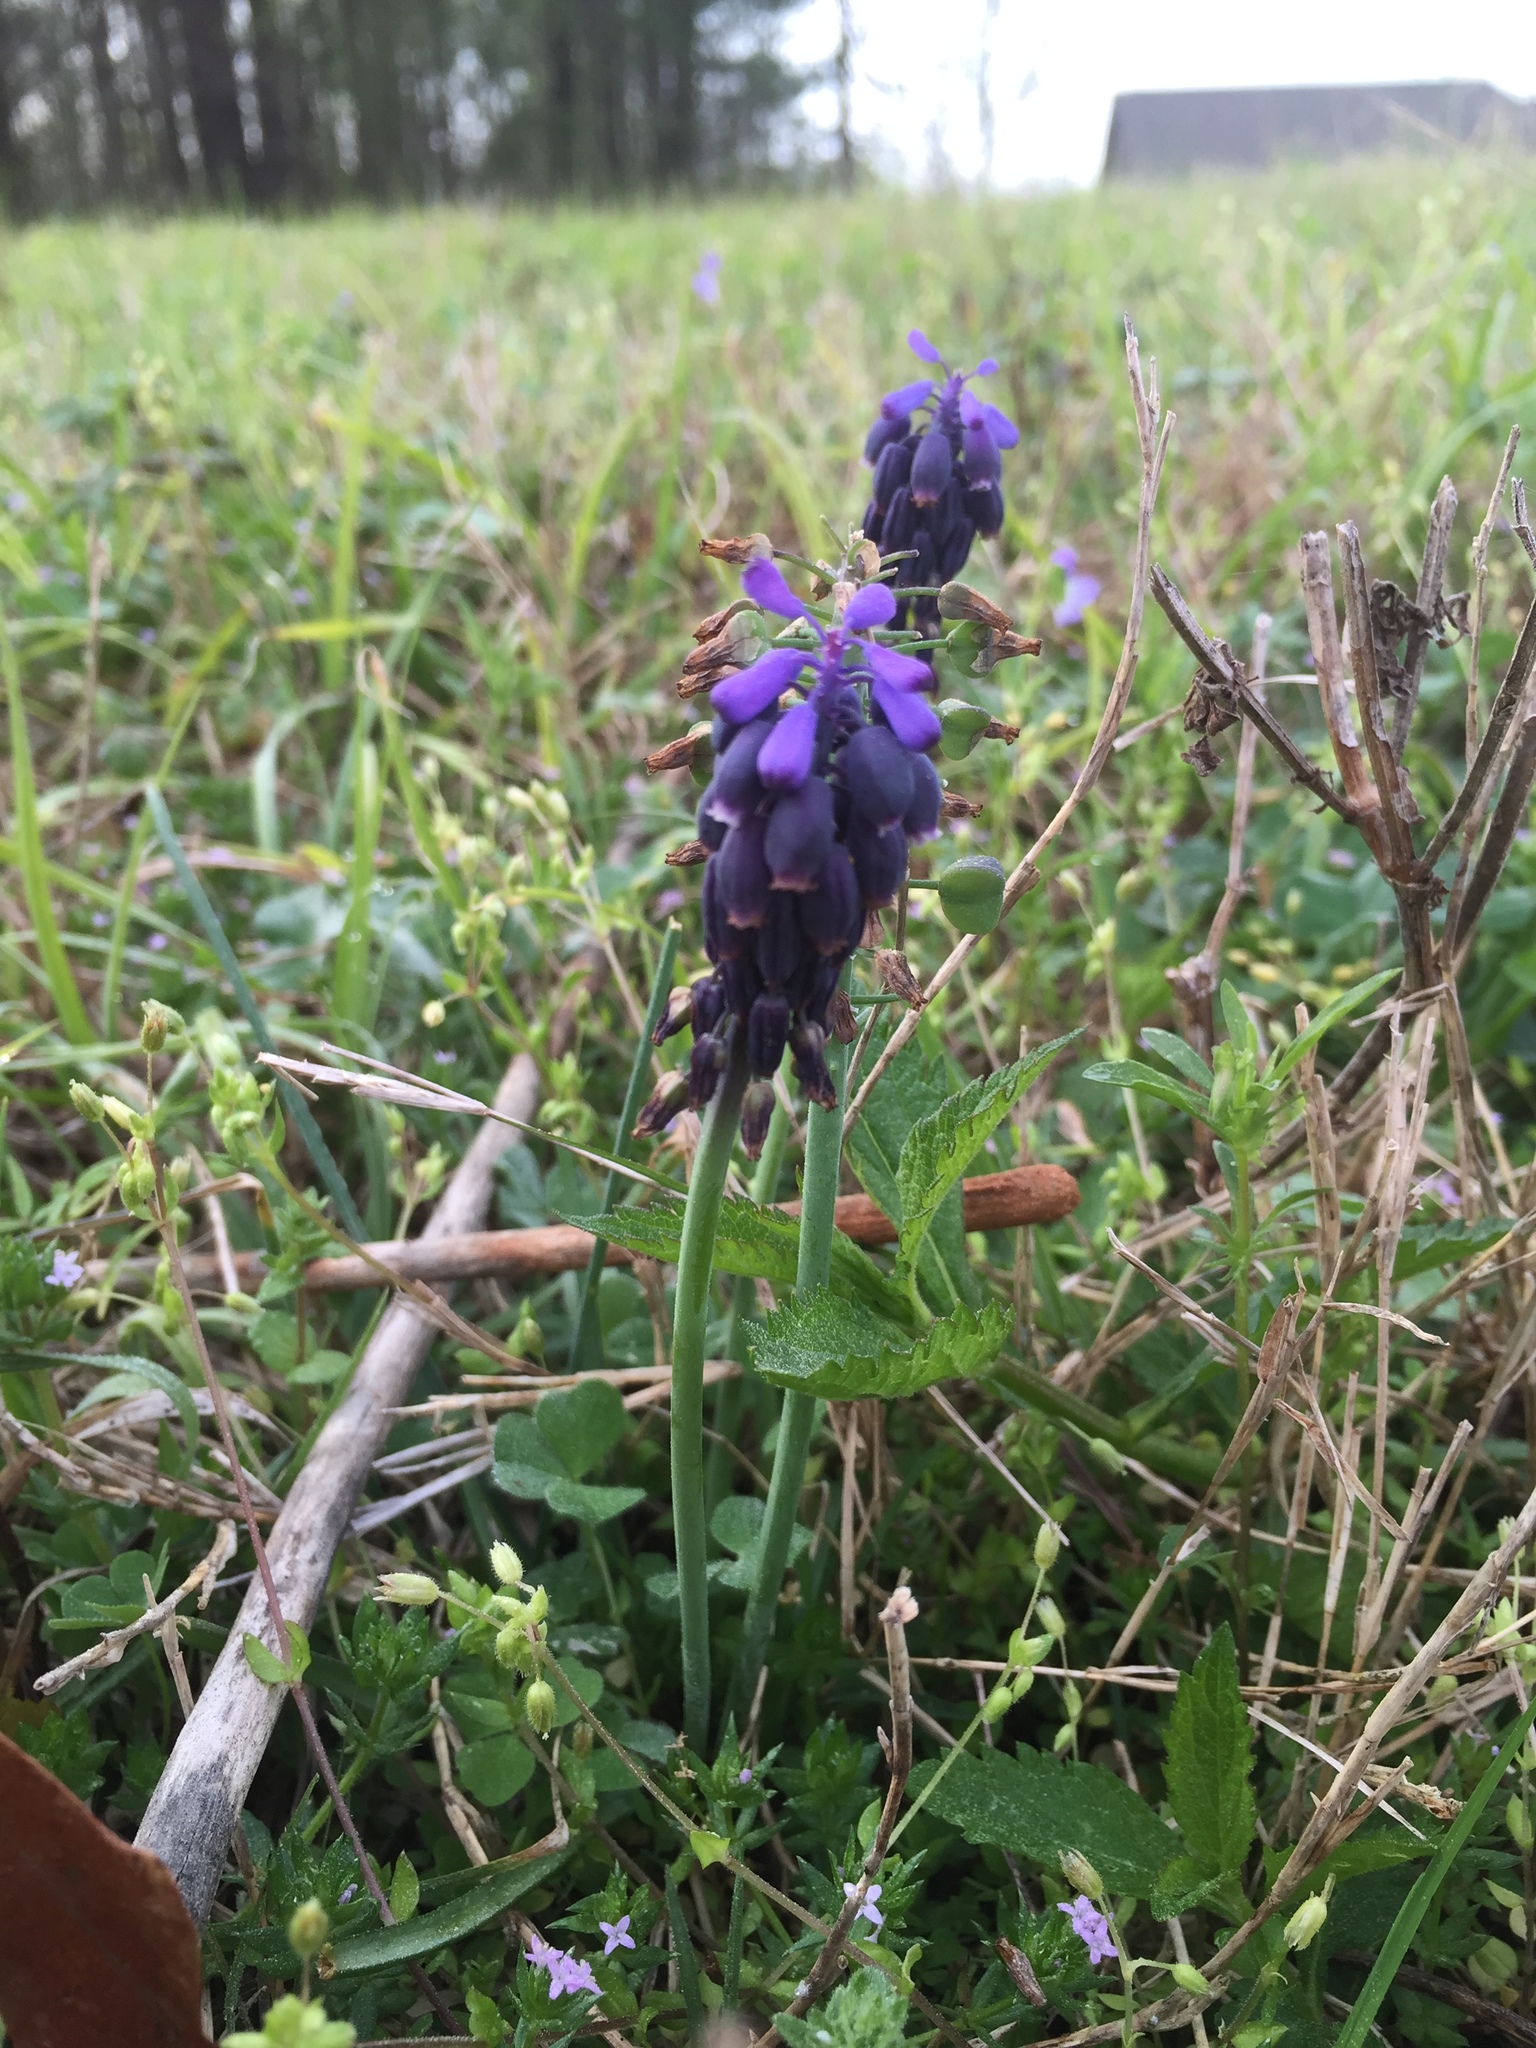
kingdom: Plantae
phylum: Tracheophyta
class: Liliopsida
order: Asparagales
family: Asparagaceae
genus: Muscari
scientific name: Muscari neglectum
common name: Grape-hyacinth
